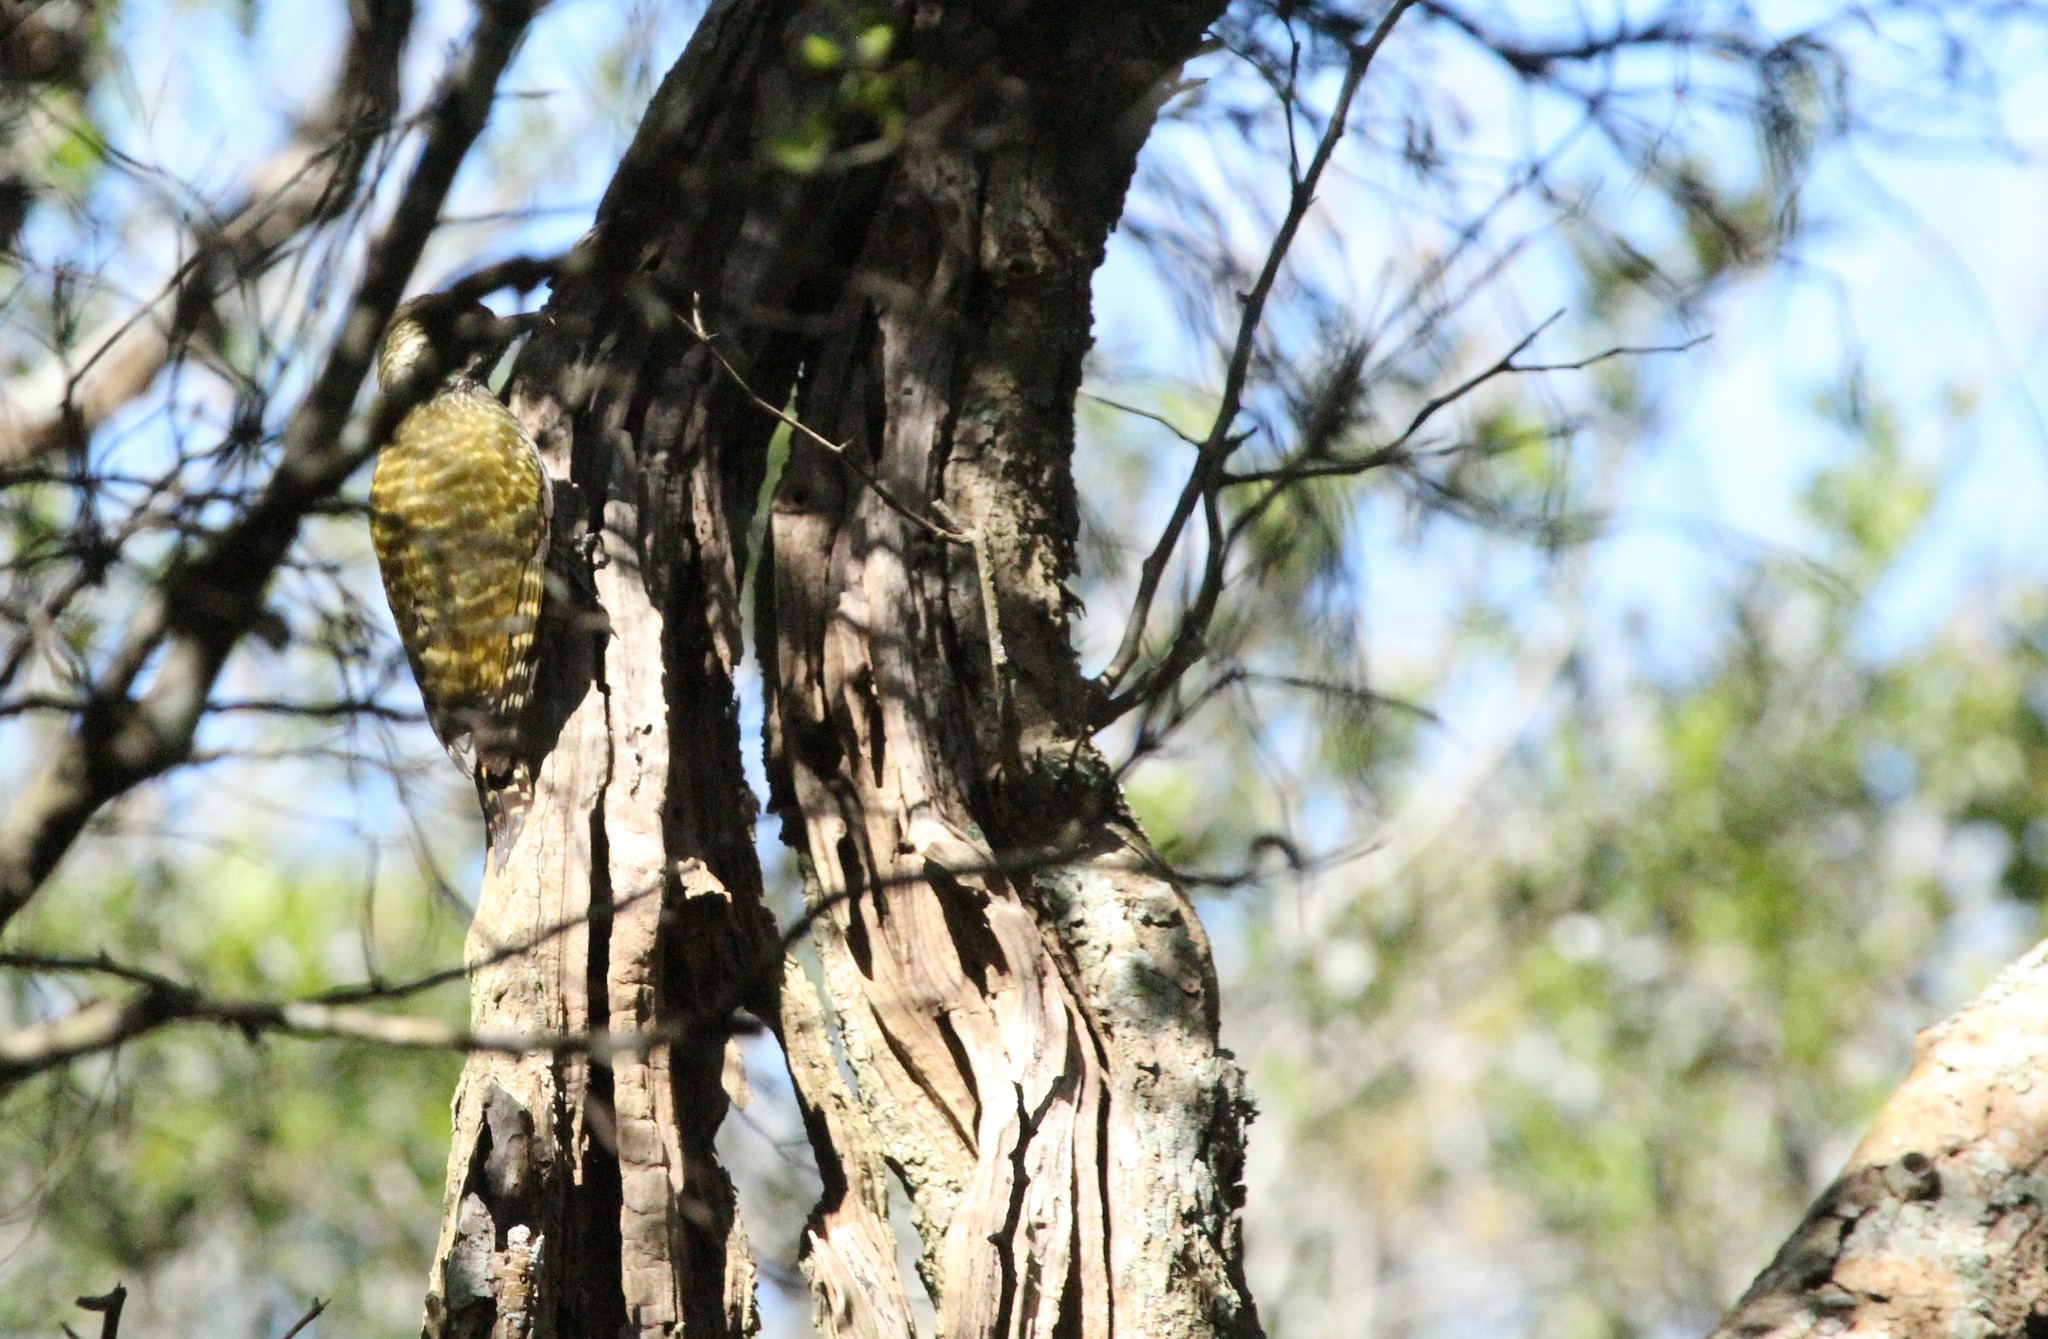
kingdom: Animalia
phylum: Chordata
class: Aves
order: Piciformes
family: Picidae
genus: Veniliornis
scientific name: Veniliornis spilogaster
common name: White-spotted woodpecker
